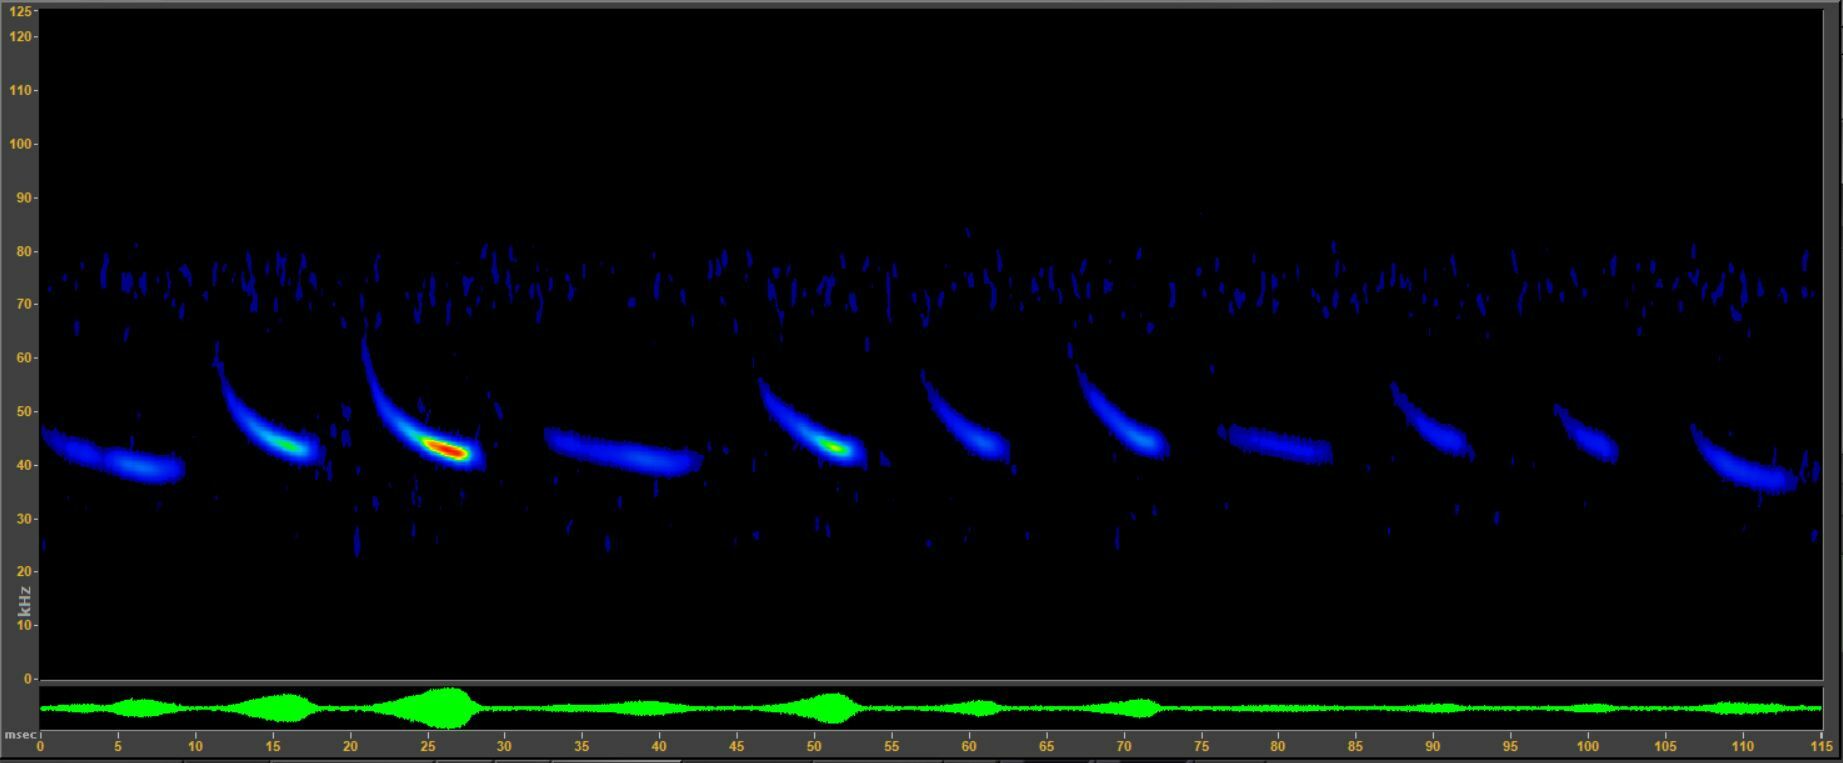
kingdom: Animalia
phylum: Chordata
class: Mammalia
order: Chiroptera
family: Vespertilionidae
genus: Lasiurus
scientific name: Lasiurus borealis
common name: Eastern red bat
